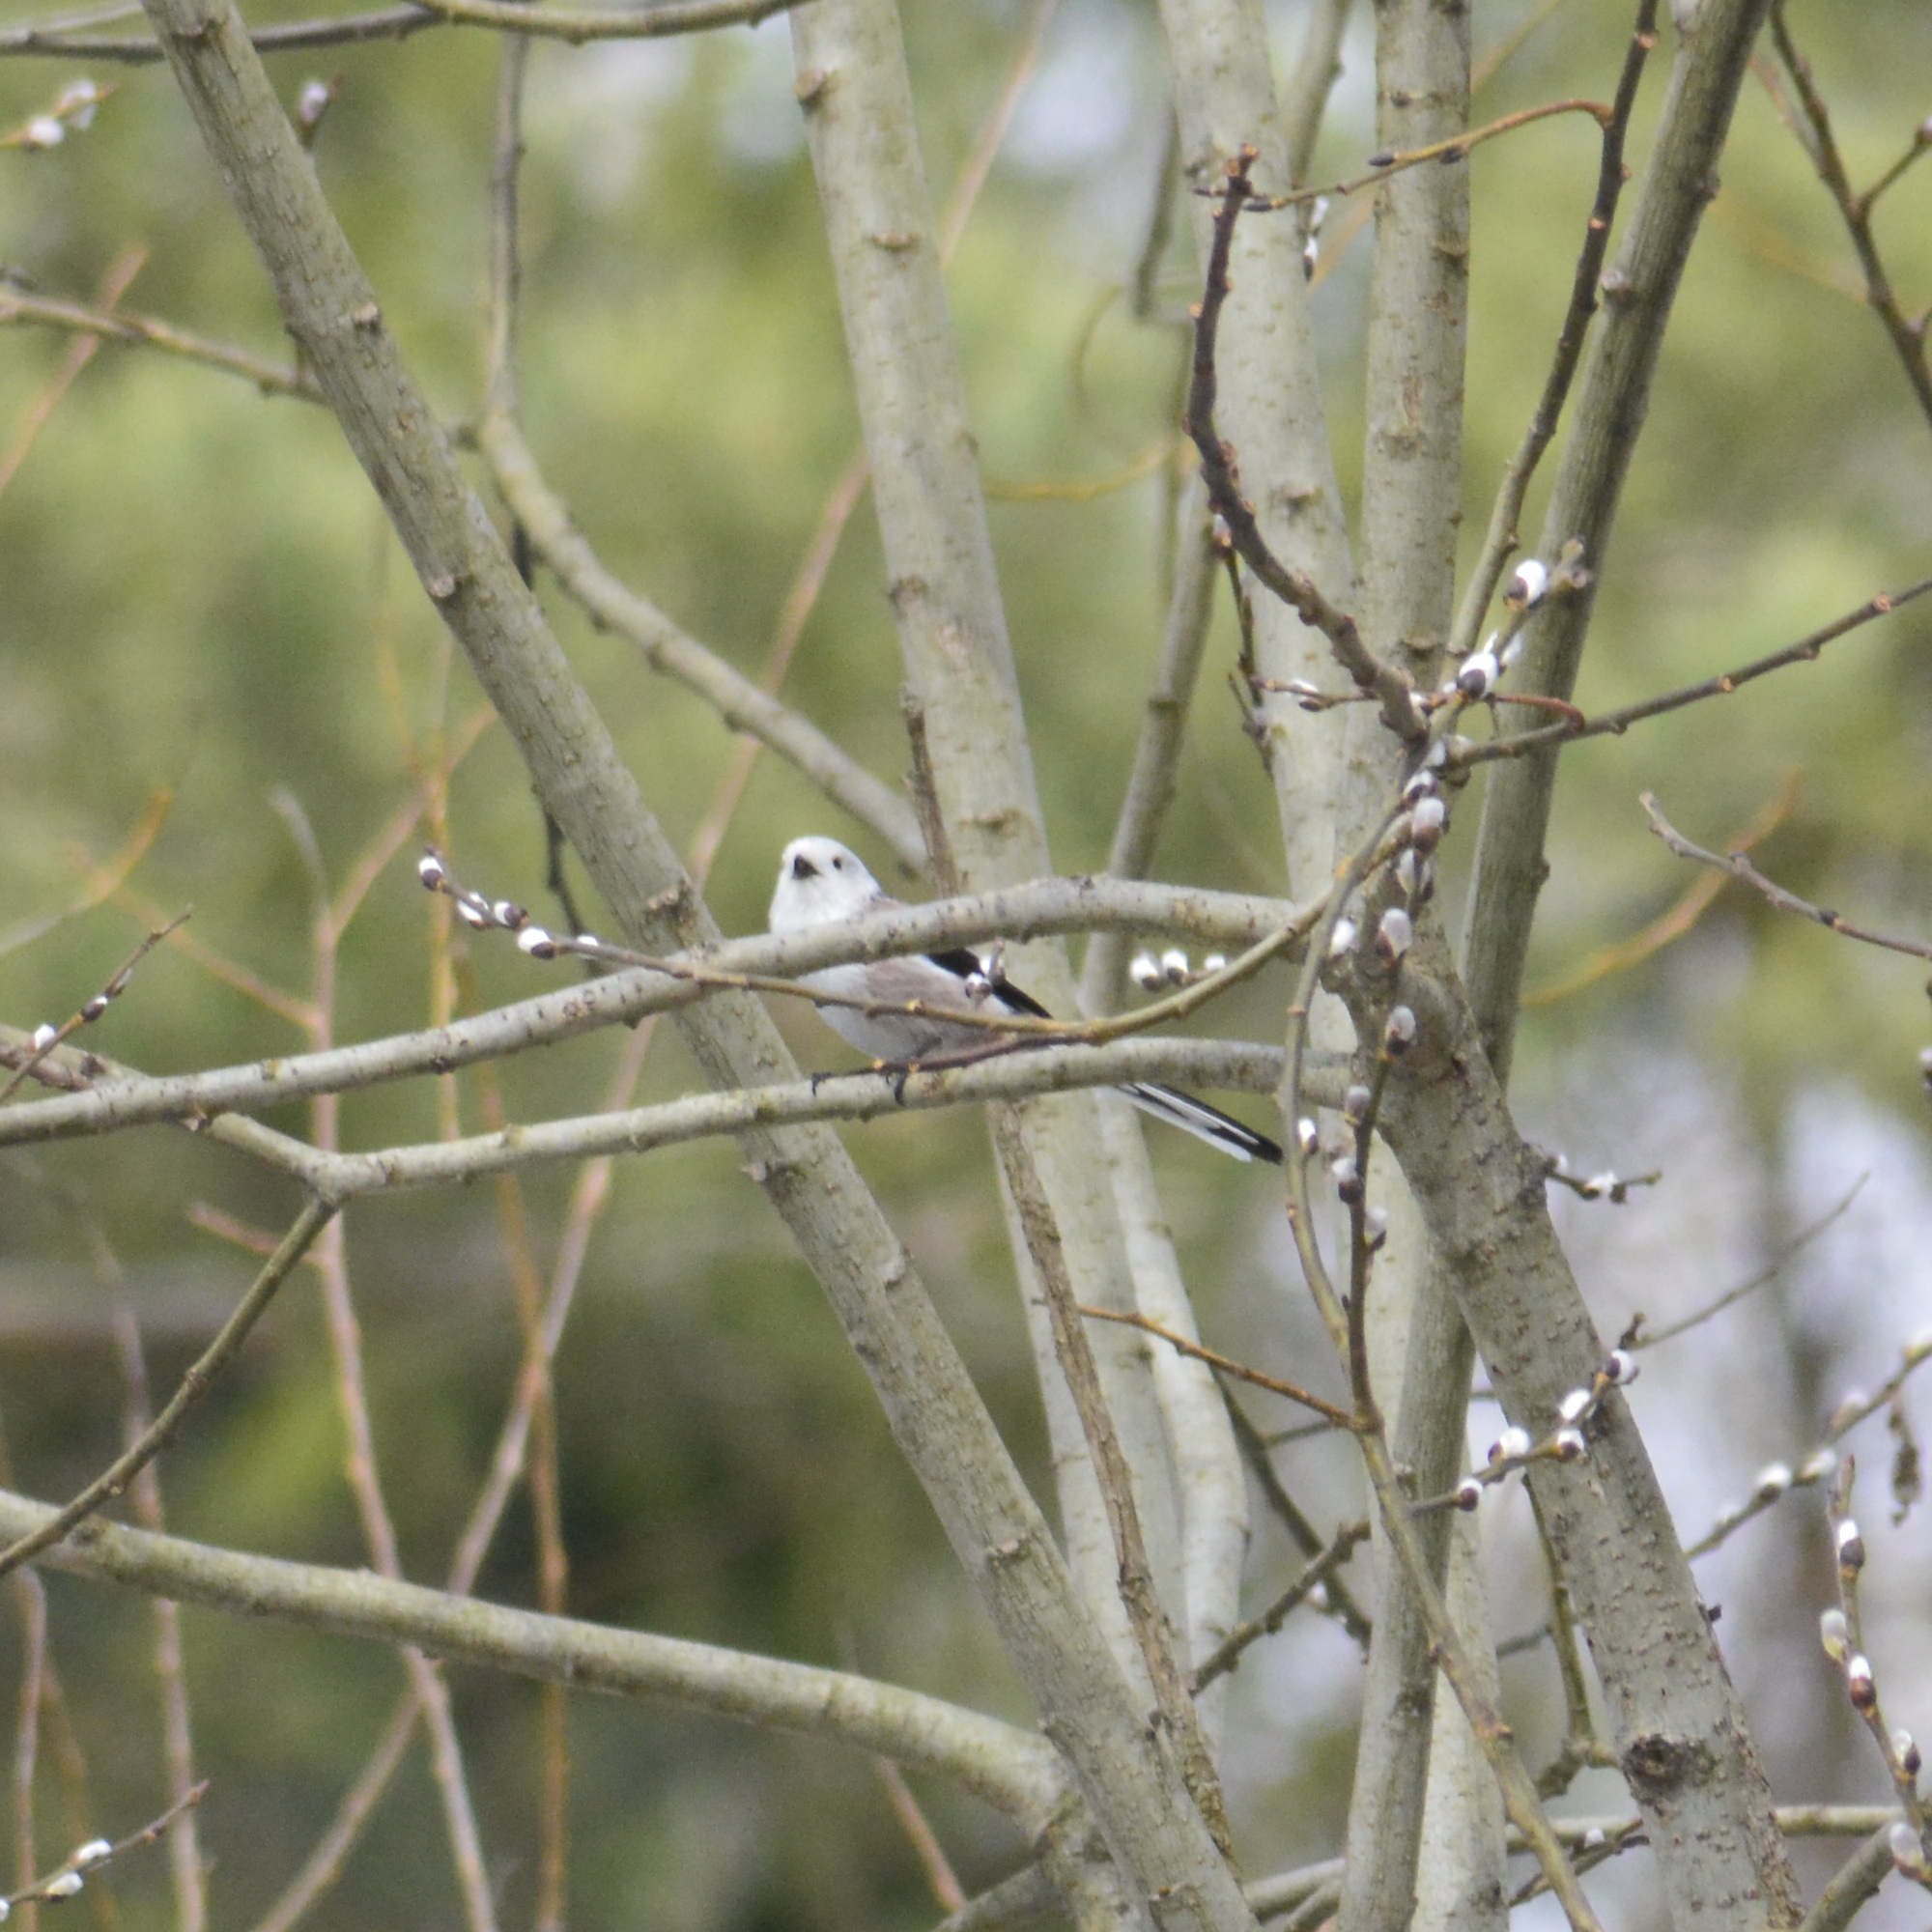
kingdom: Animalia
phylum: Chordata
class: Aves
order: Passeriformes
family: Aegithalidae
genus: Aegithalos
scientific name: Aegithalos caudatus
